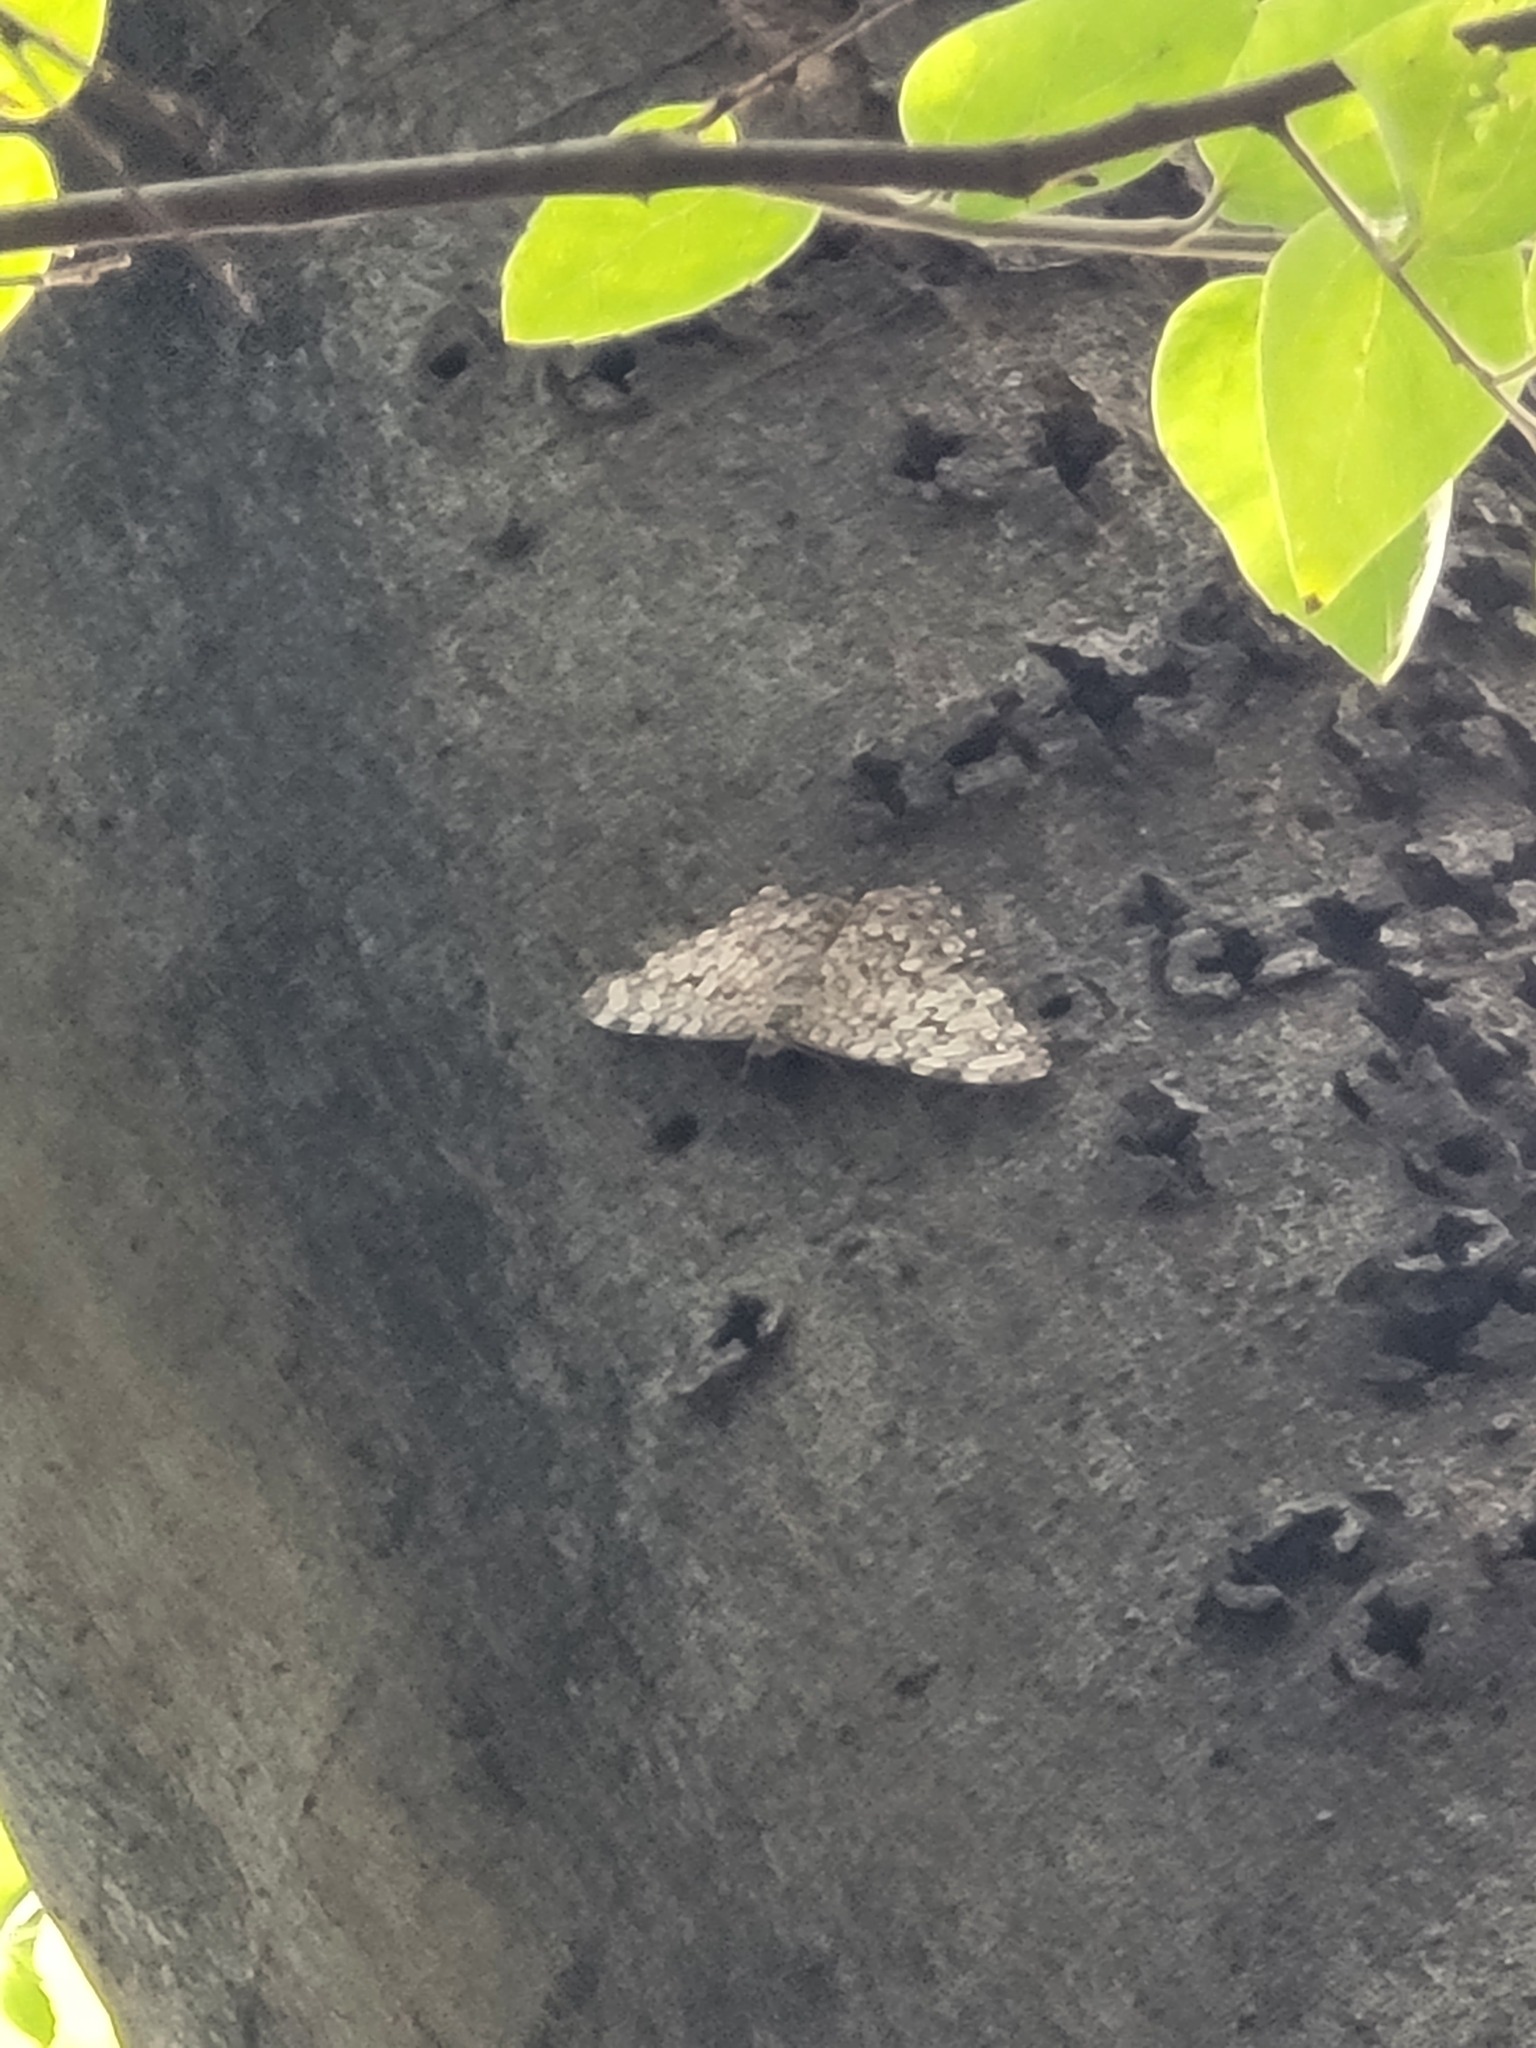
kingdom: Animalia
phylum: Arthropoda
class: Insecta
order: Lepidoptera
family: Nymphalidae
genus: Hamadryas
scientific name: Hamadryas februa
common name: Gray cracker
